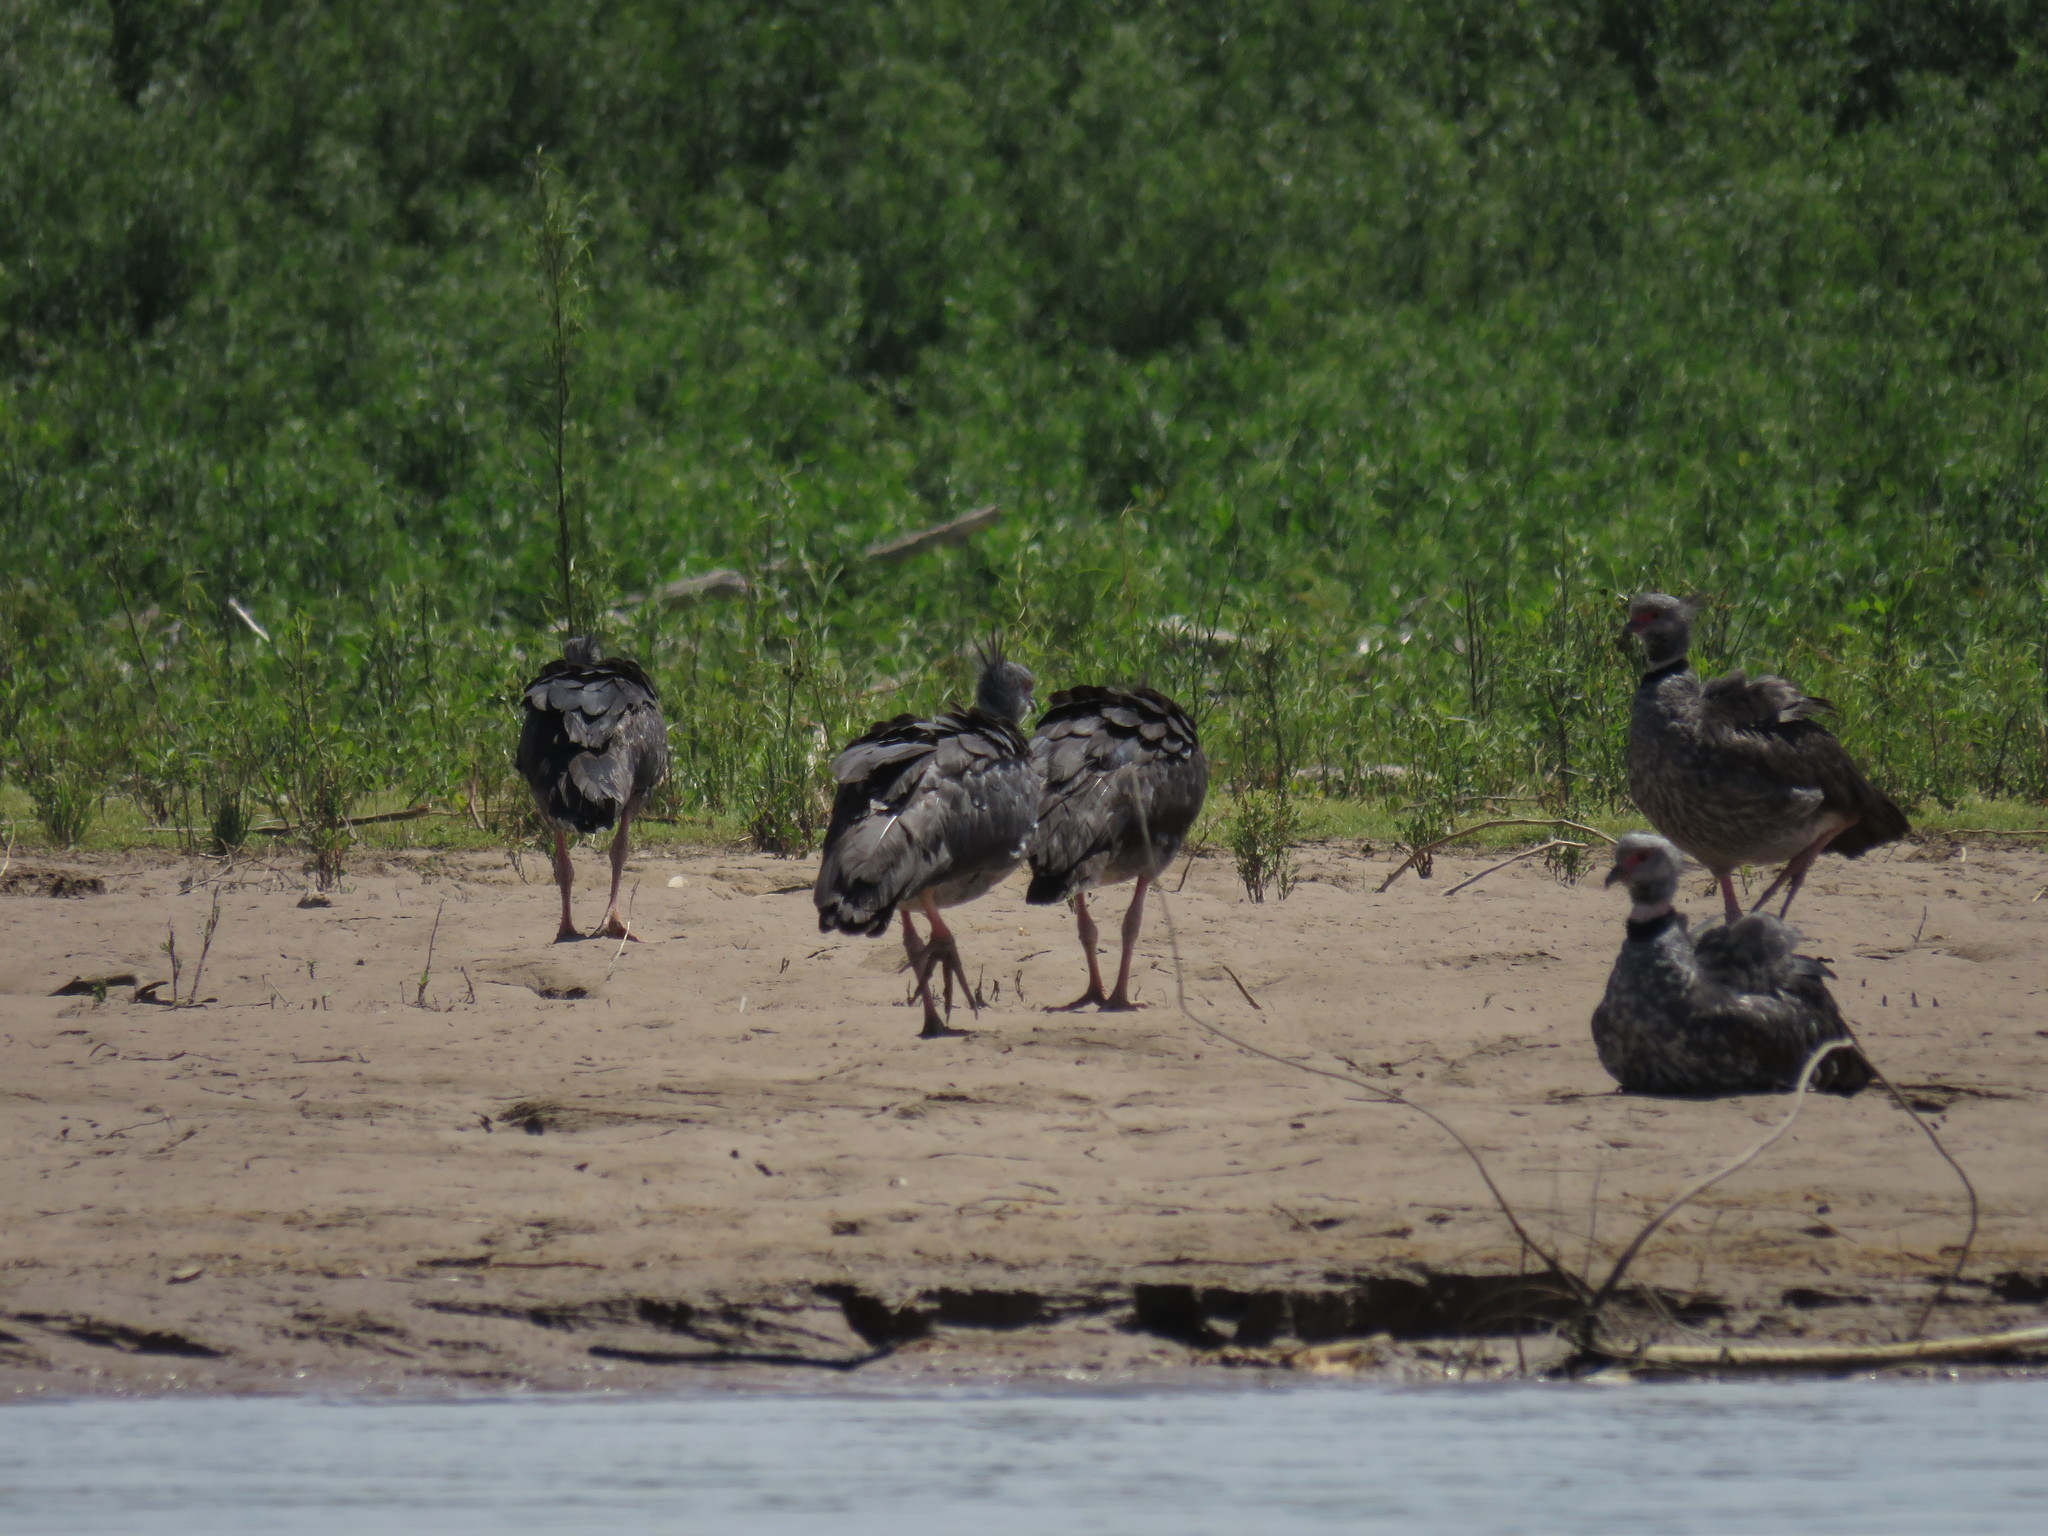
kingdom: Animalia
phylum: Chordata
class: Aves
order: Anseriformes
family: Anhimidae
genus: Chauna
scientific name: Chauna torquata
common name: Southern screamer
